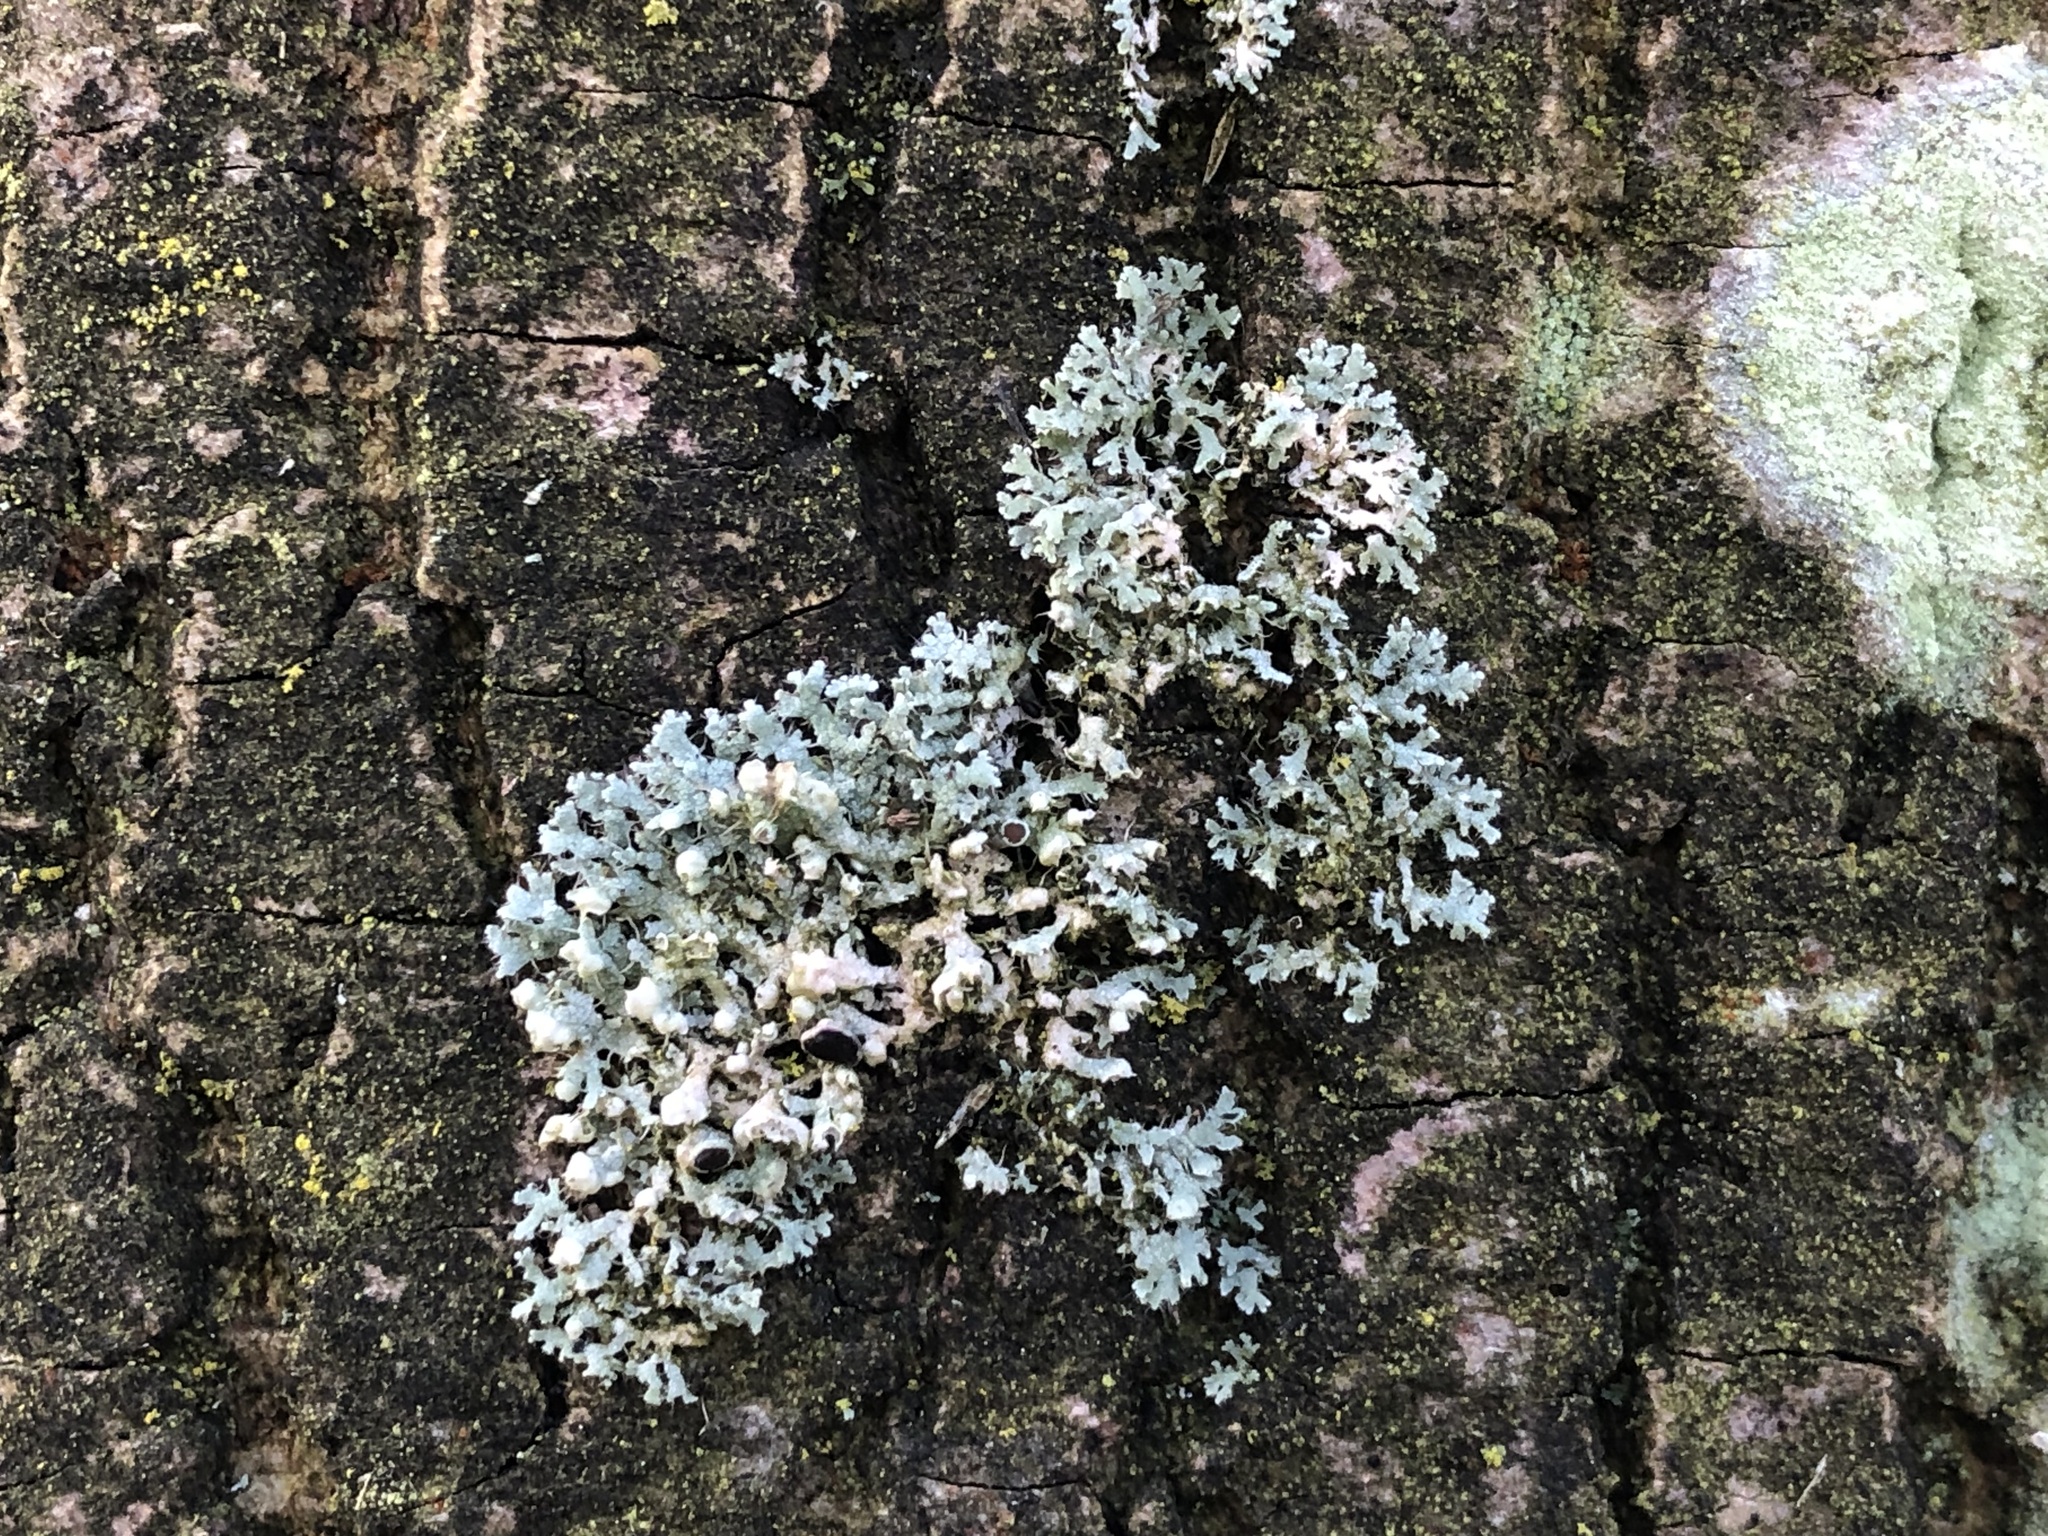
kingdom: Fungi
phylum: Ascomycota
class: Lecanoromycetes
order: Caliciales
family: Physciaceae
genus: Physcia
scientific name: Physcia adscendens
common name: Hooded rosette lichen
